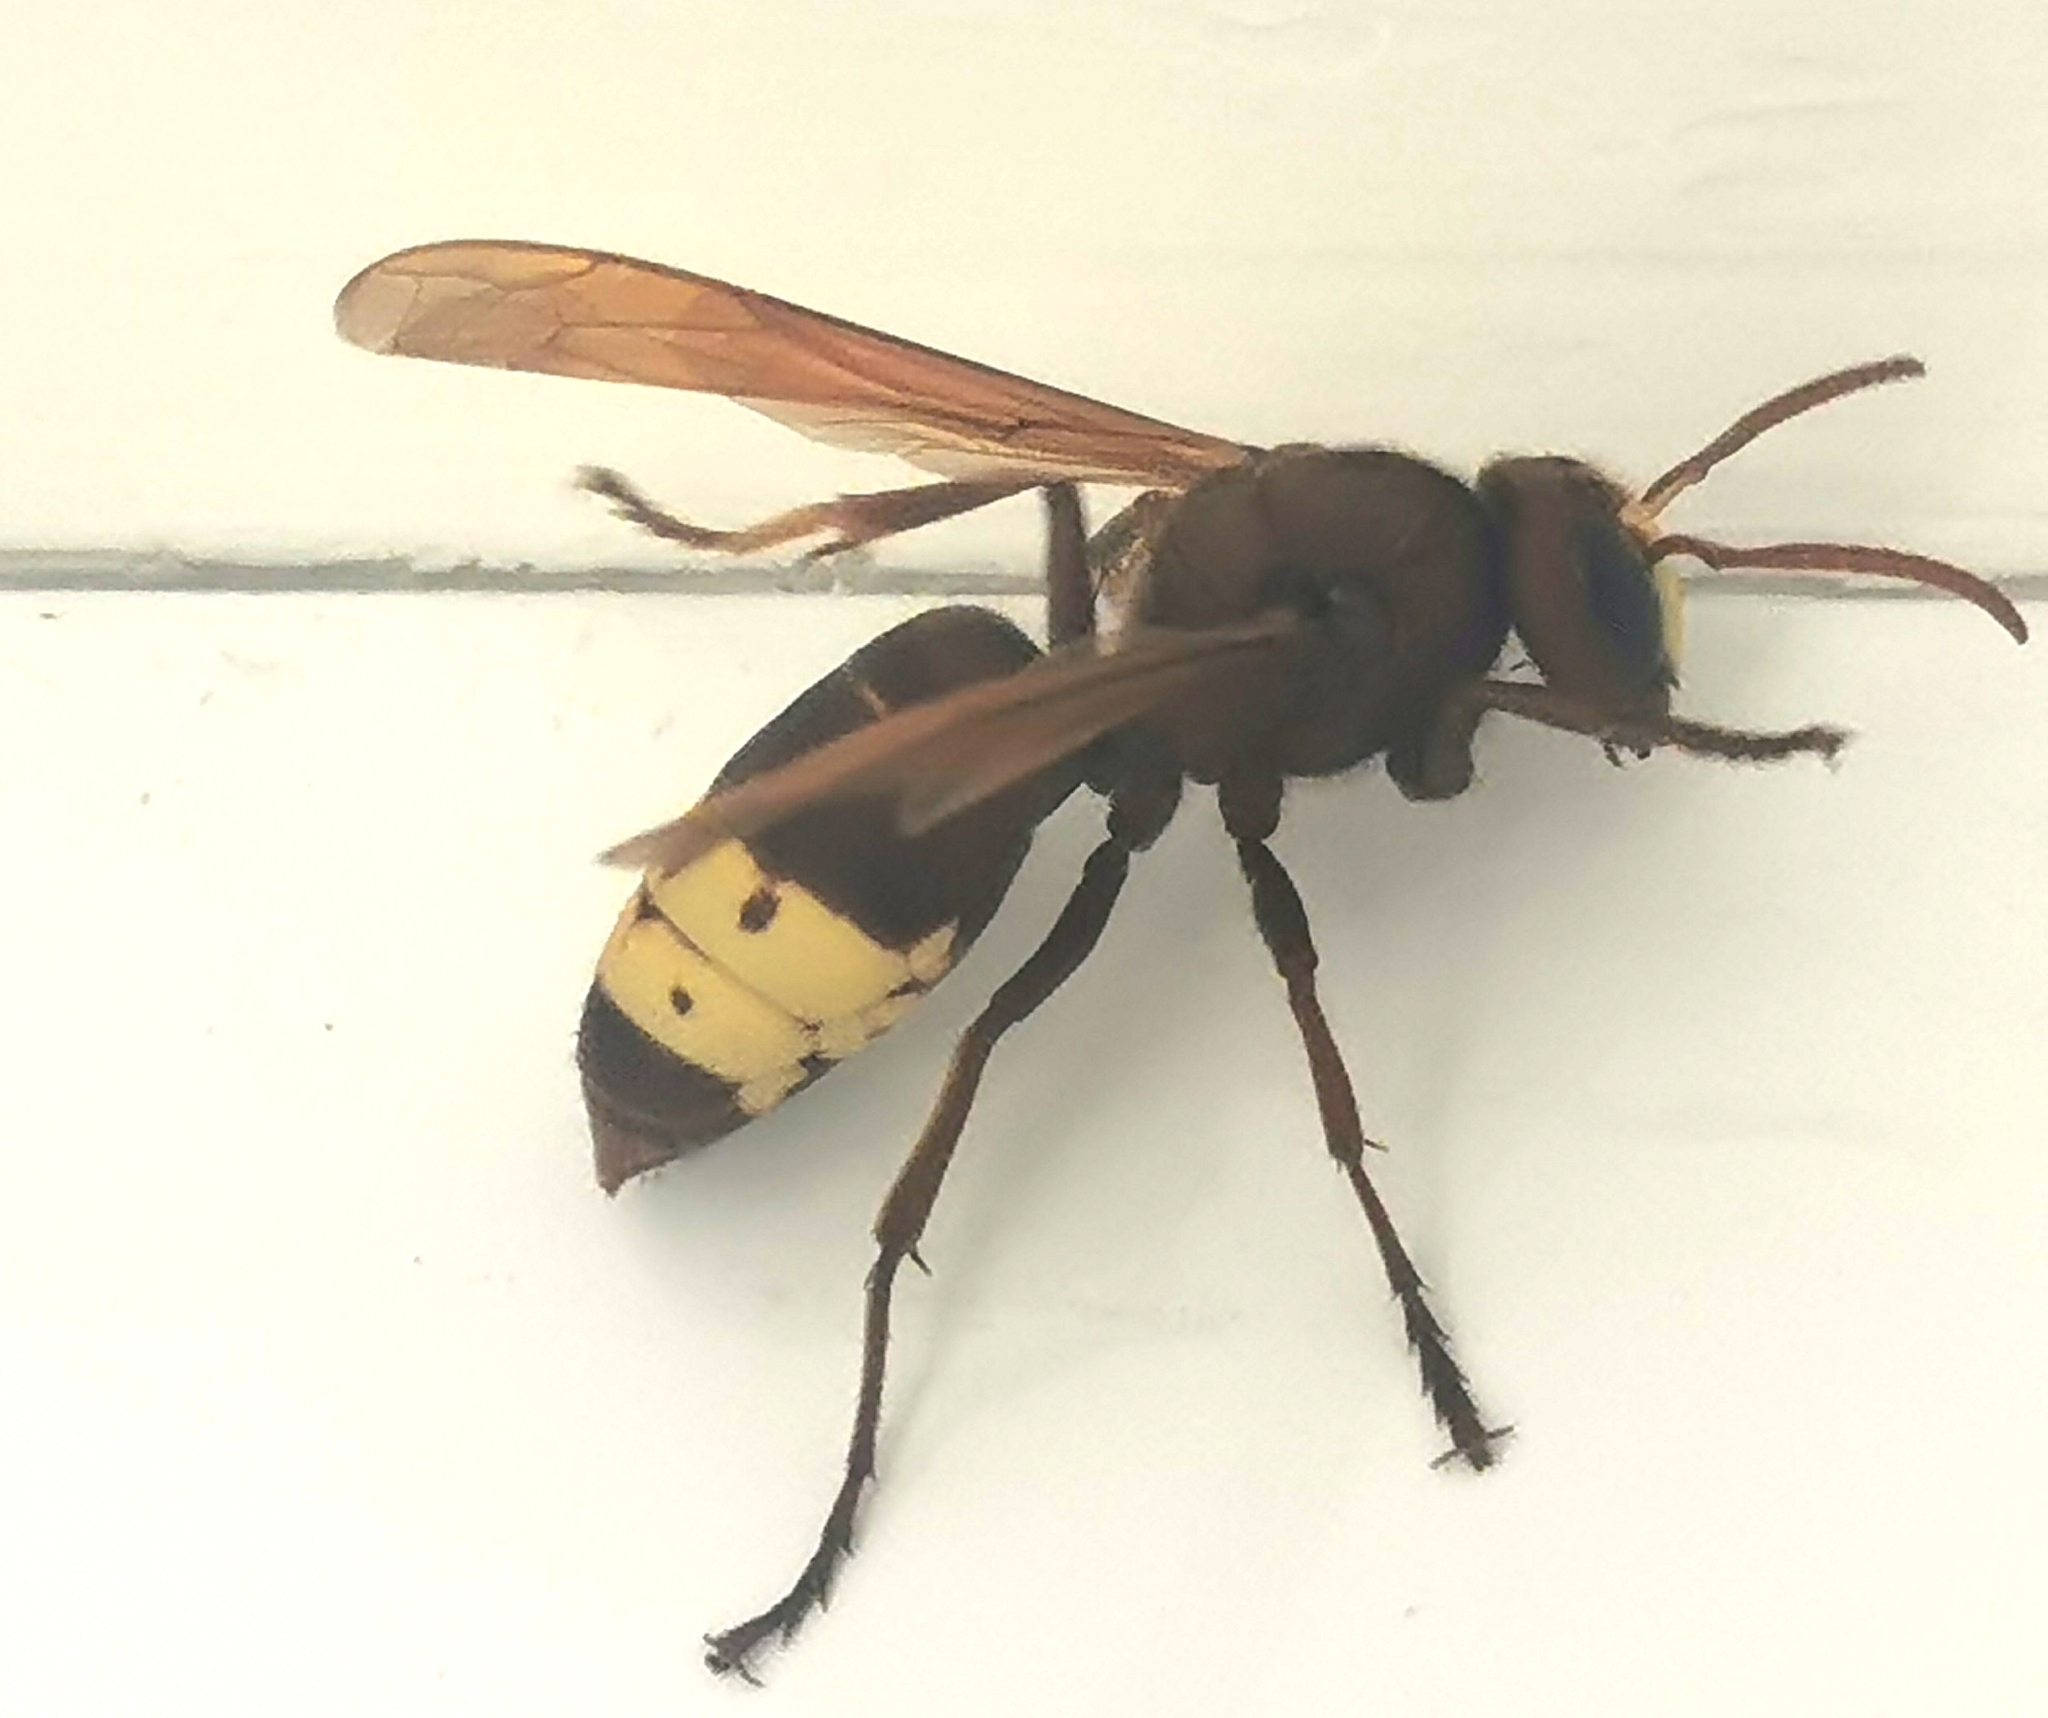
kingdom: Animalia
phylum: Arthropoda
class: Insecta
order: Hymenoptera
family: Vespidae
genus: Vespa
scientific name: Vespa orientalis
